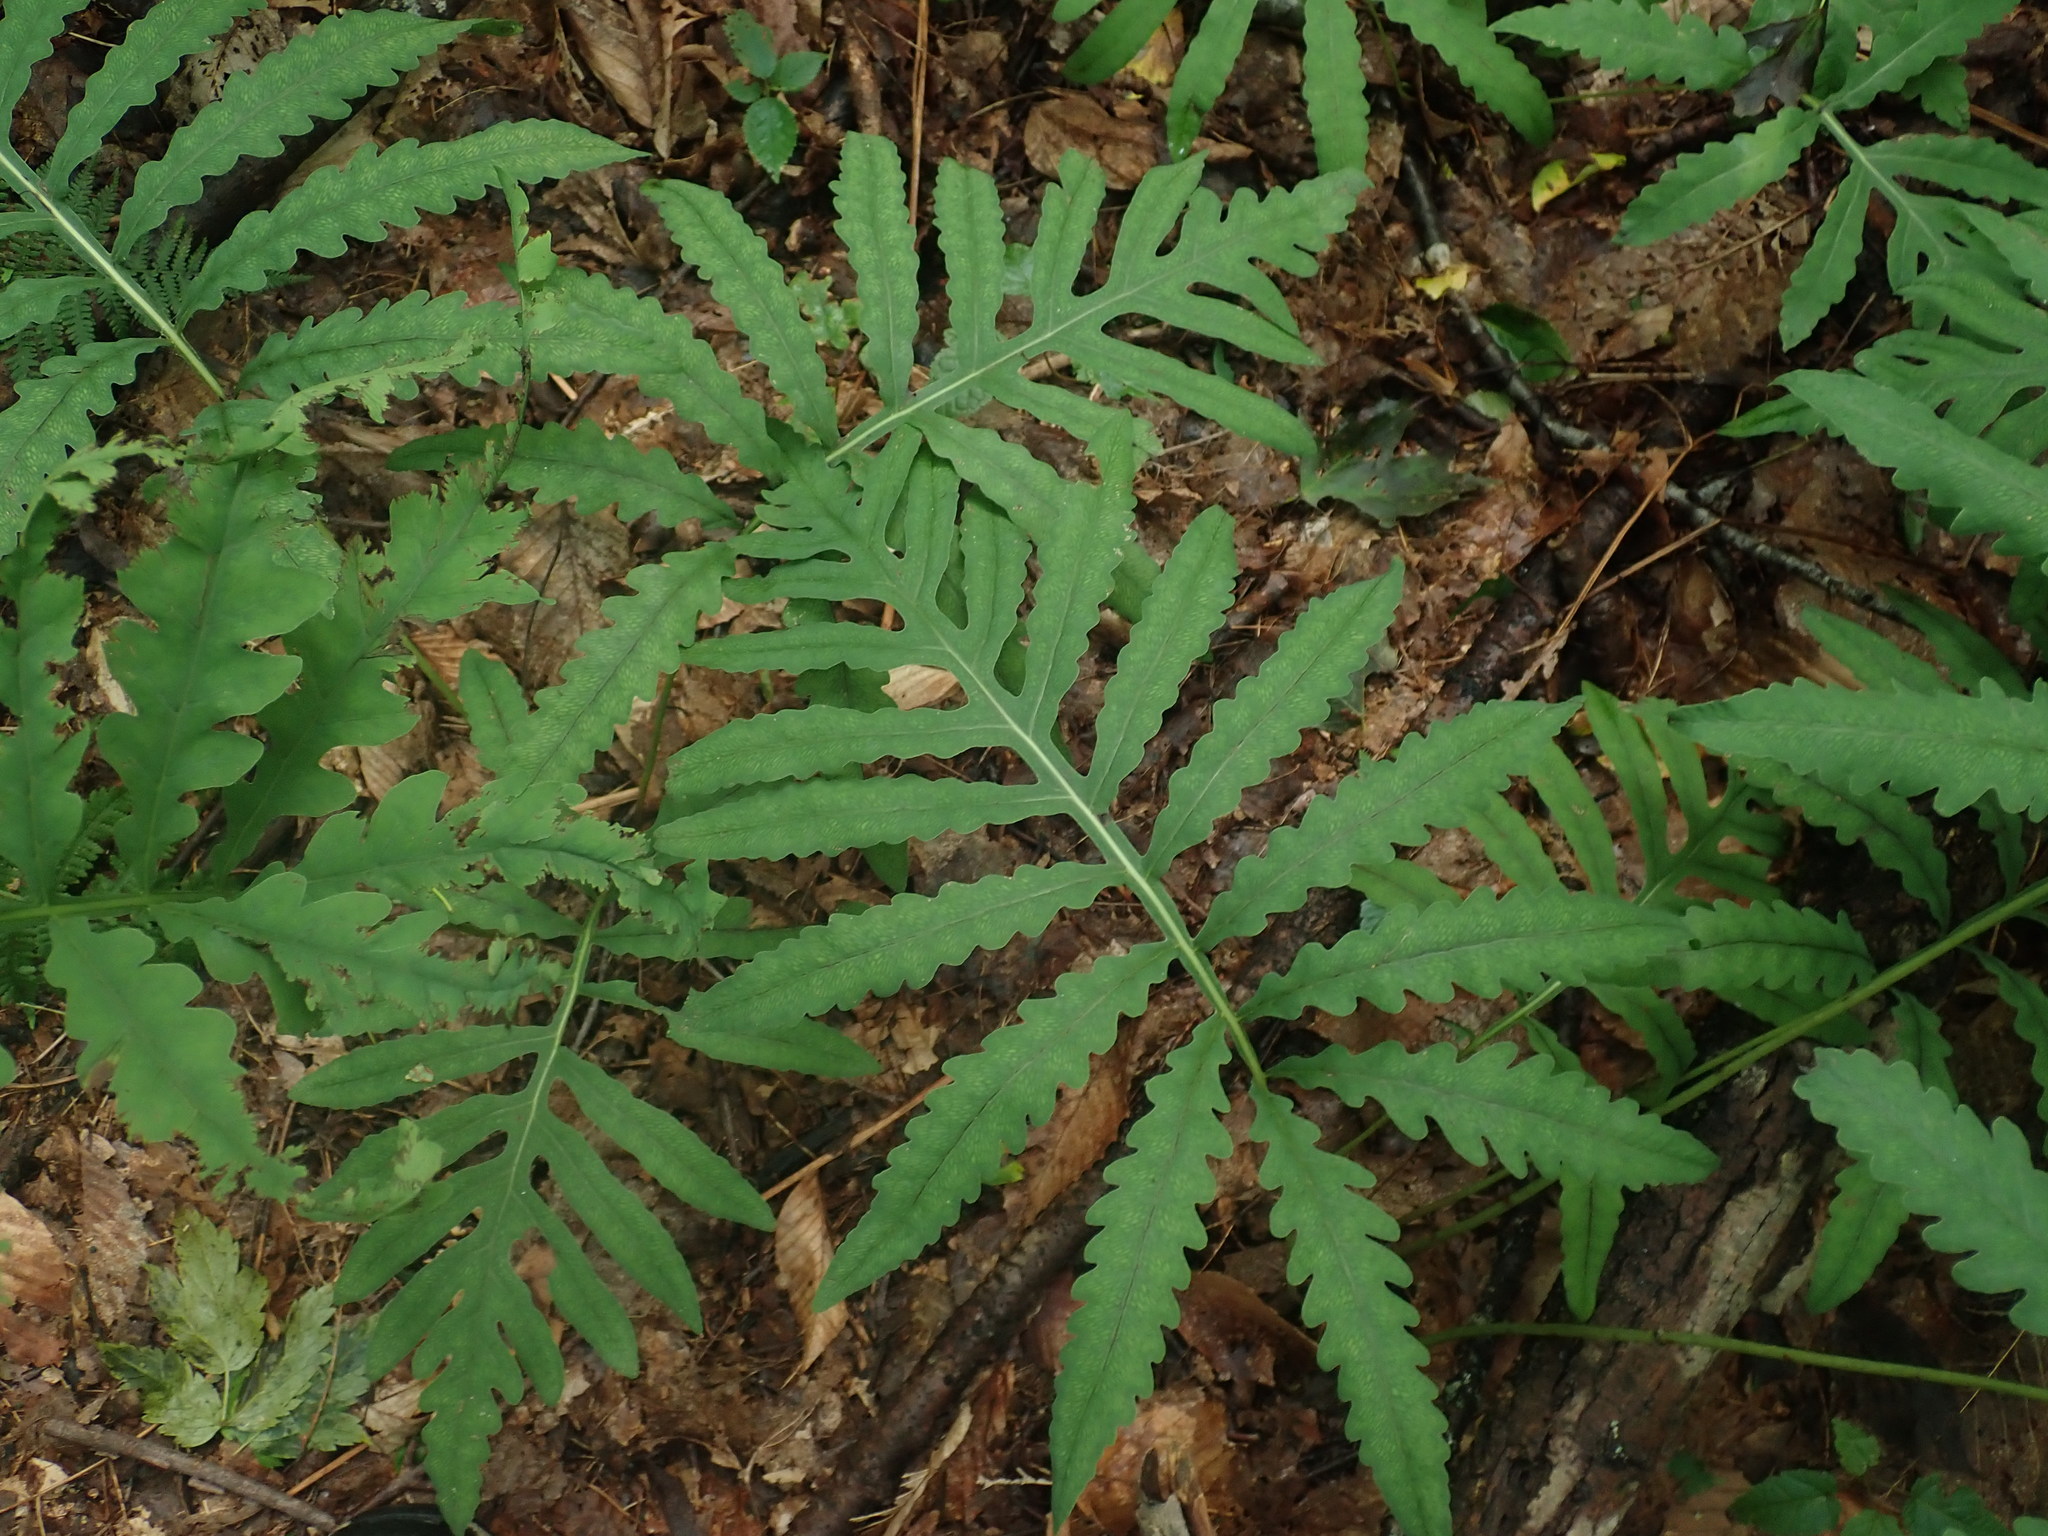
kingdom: Plantae
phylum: Tracheophyta
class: Polypodiopsida
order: Polypodiales
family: Onocleaceae
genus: Onoclea
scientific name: Onoclea sensibilis
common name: Sensitive fern
